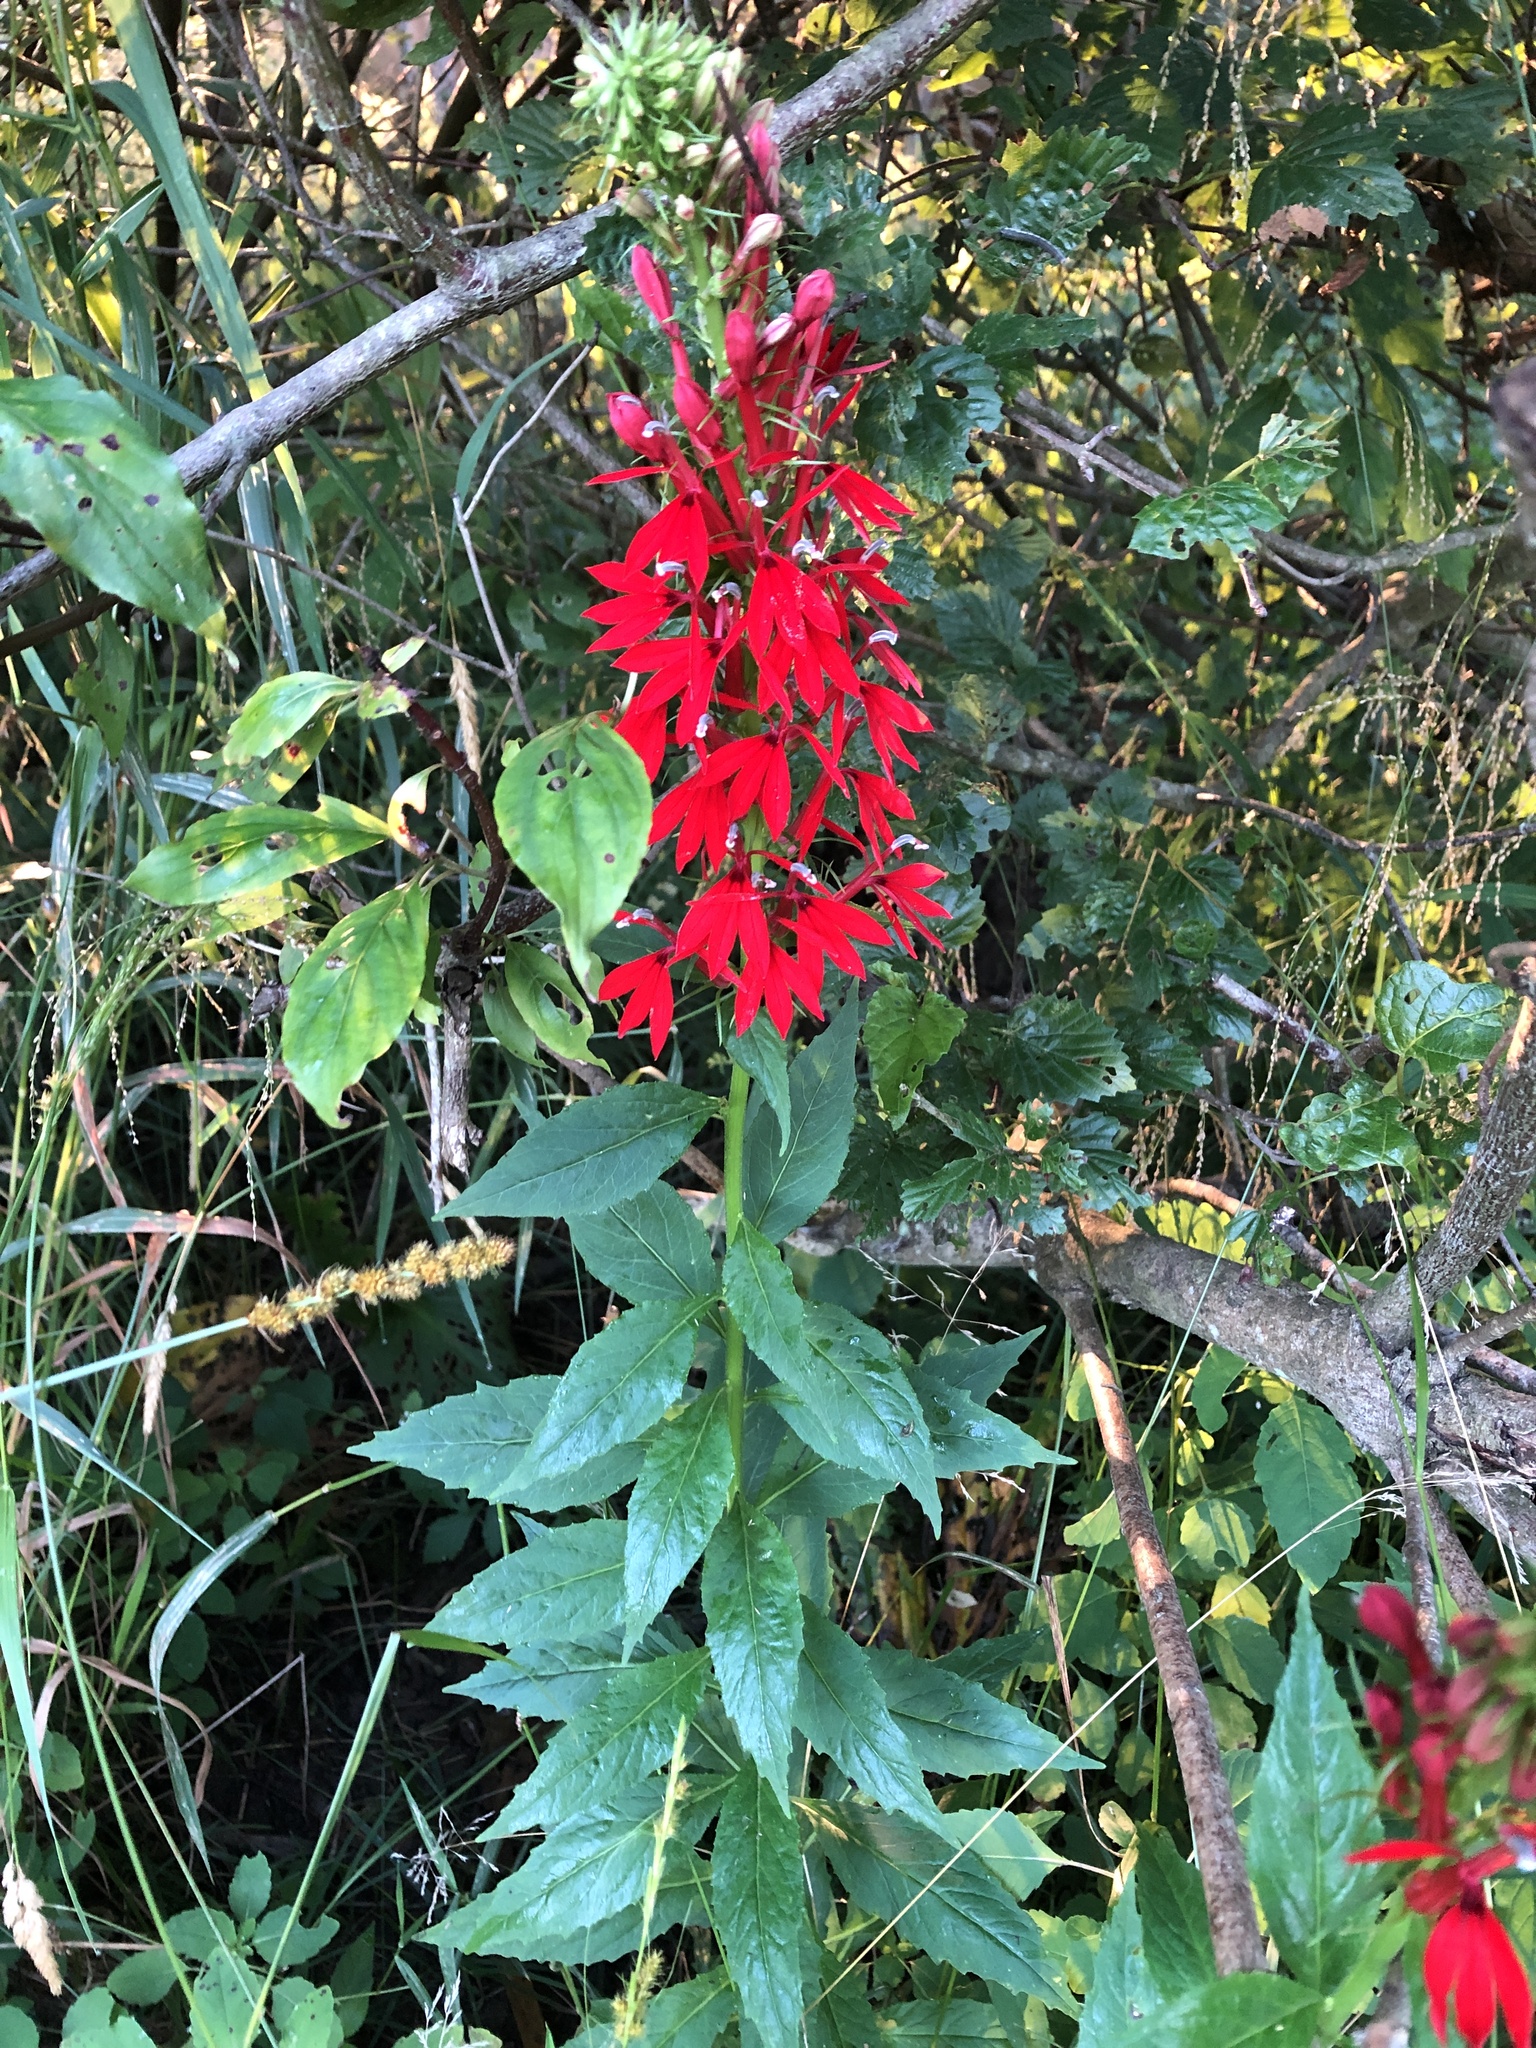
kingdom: Plantae
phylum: Tracheophyta
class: Magnoliopsida
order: Asterales
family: Campanulaceae
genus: Lobelia
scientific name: Lobelia cardinalis
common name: Cardinal flower
